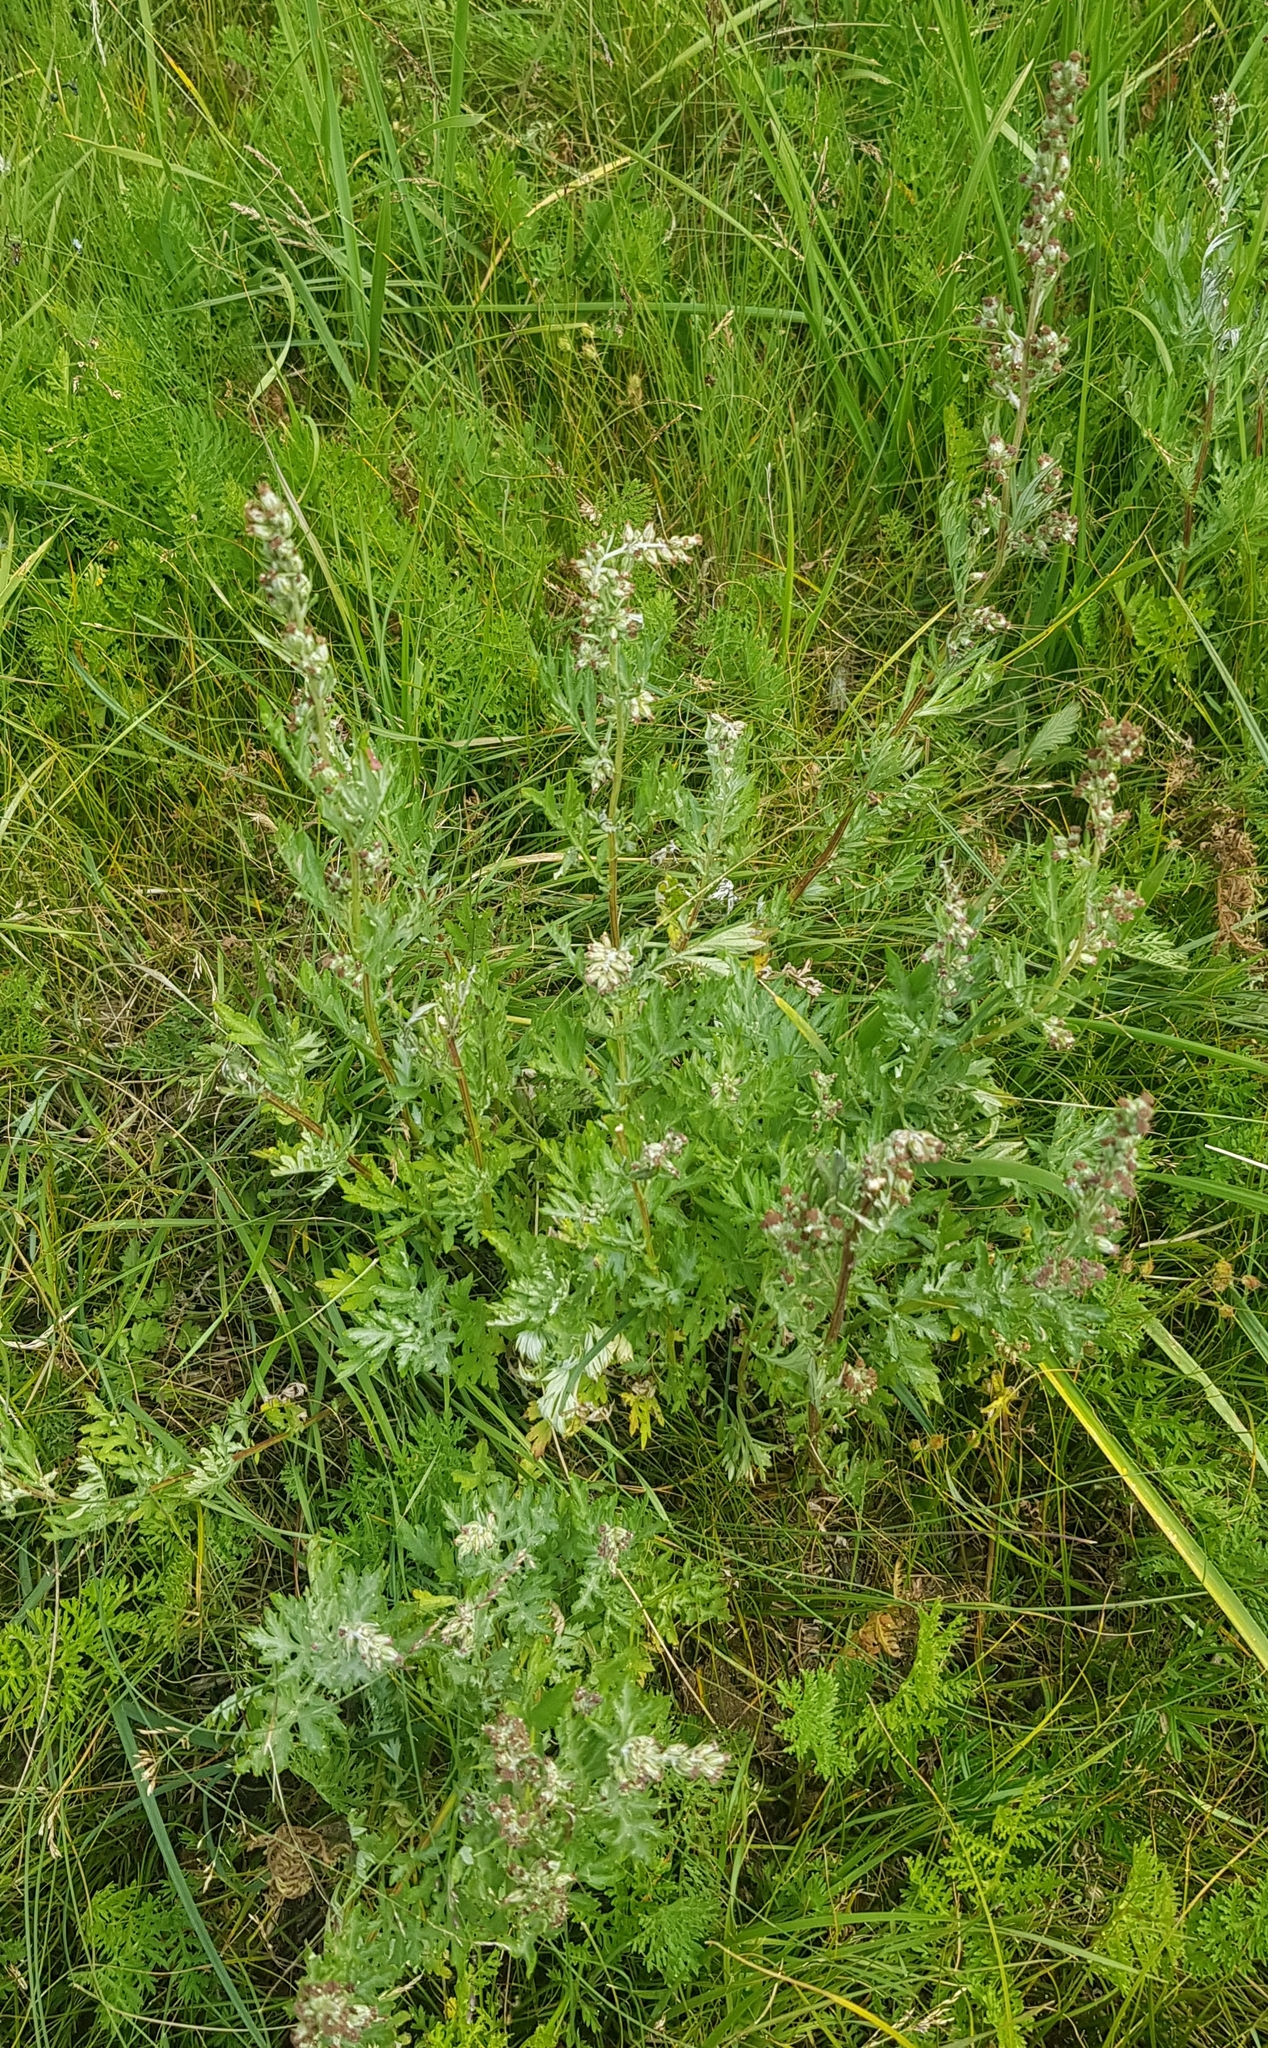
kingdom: Plantae
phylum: Tracheophyta
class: Magnoliopsida
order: Asterales
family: Asteraceae
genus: Artemisia
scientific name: Artemisia absinthium
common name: Wormwood
